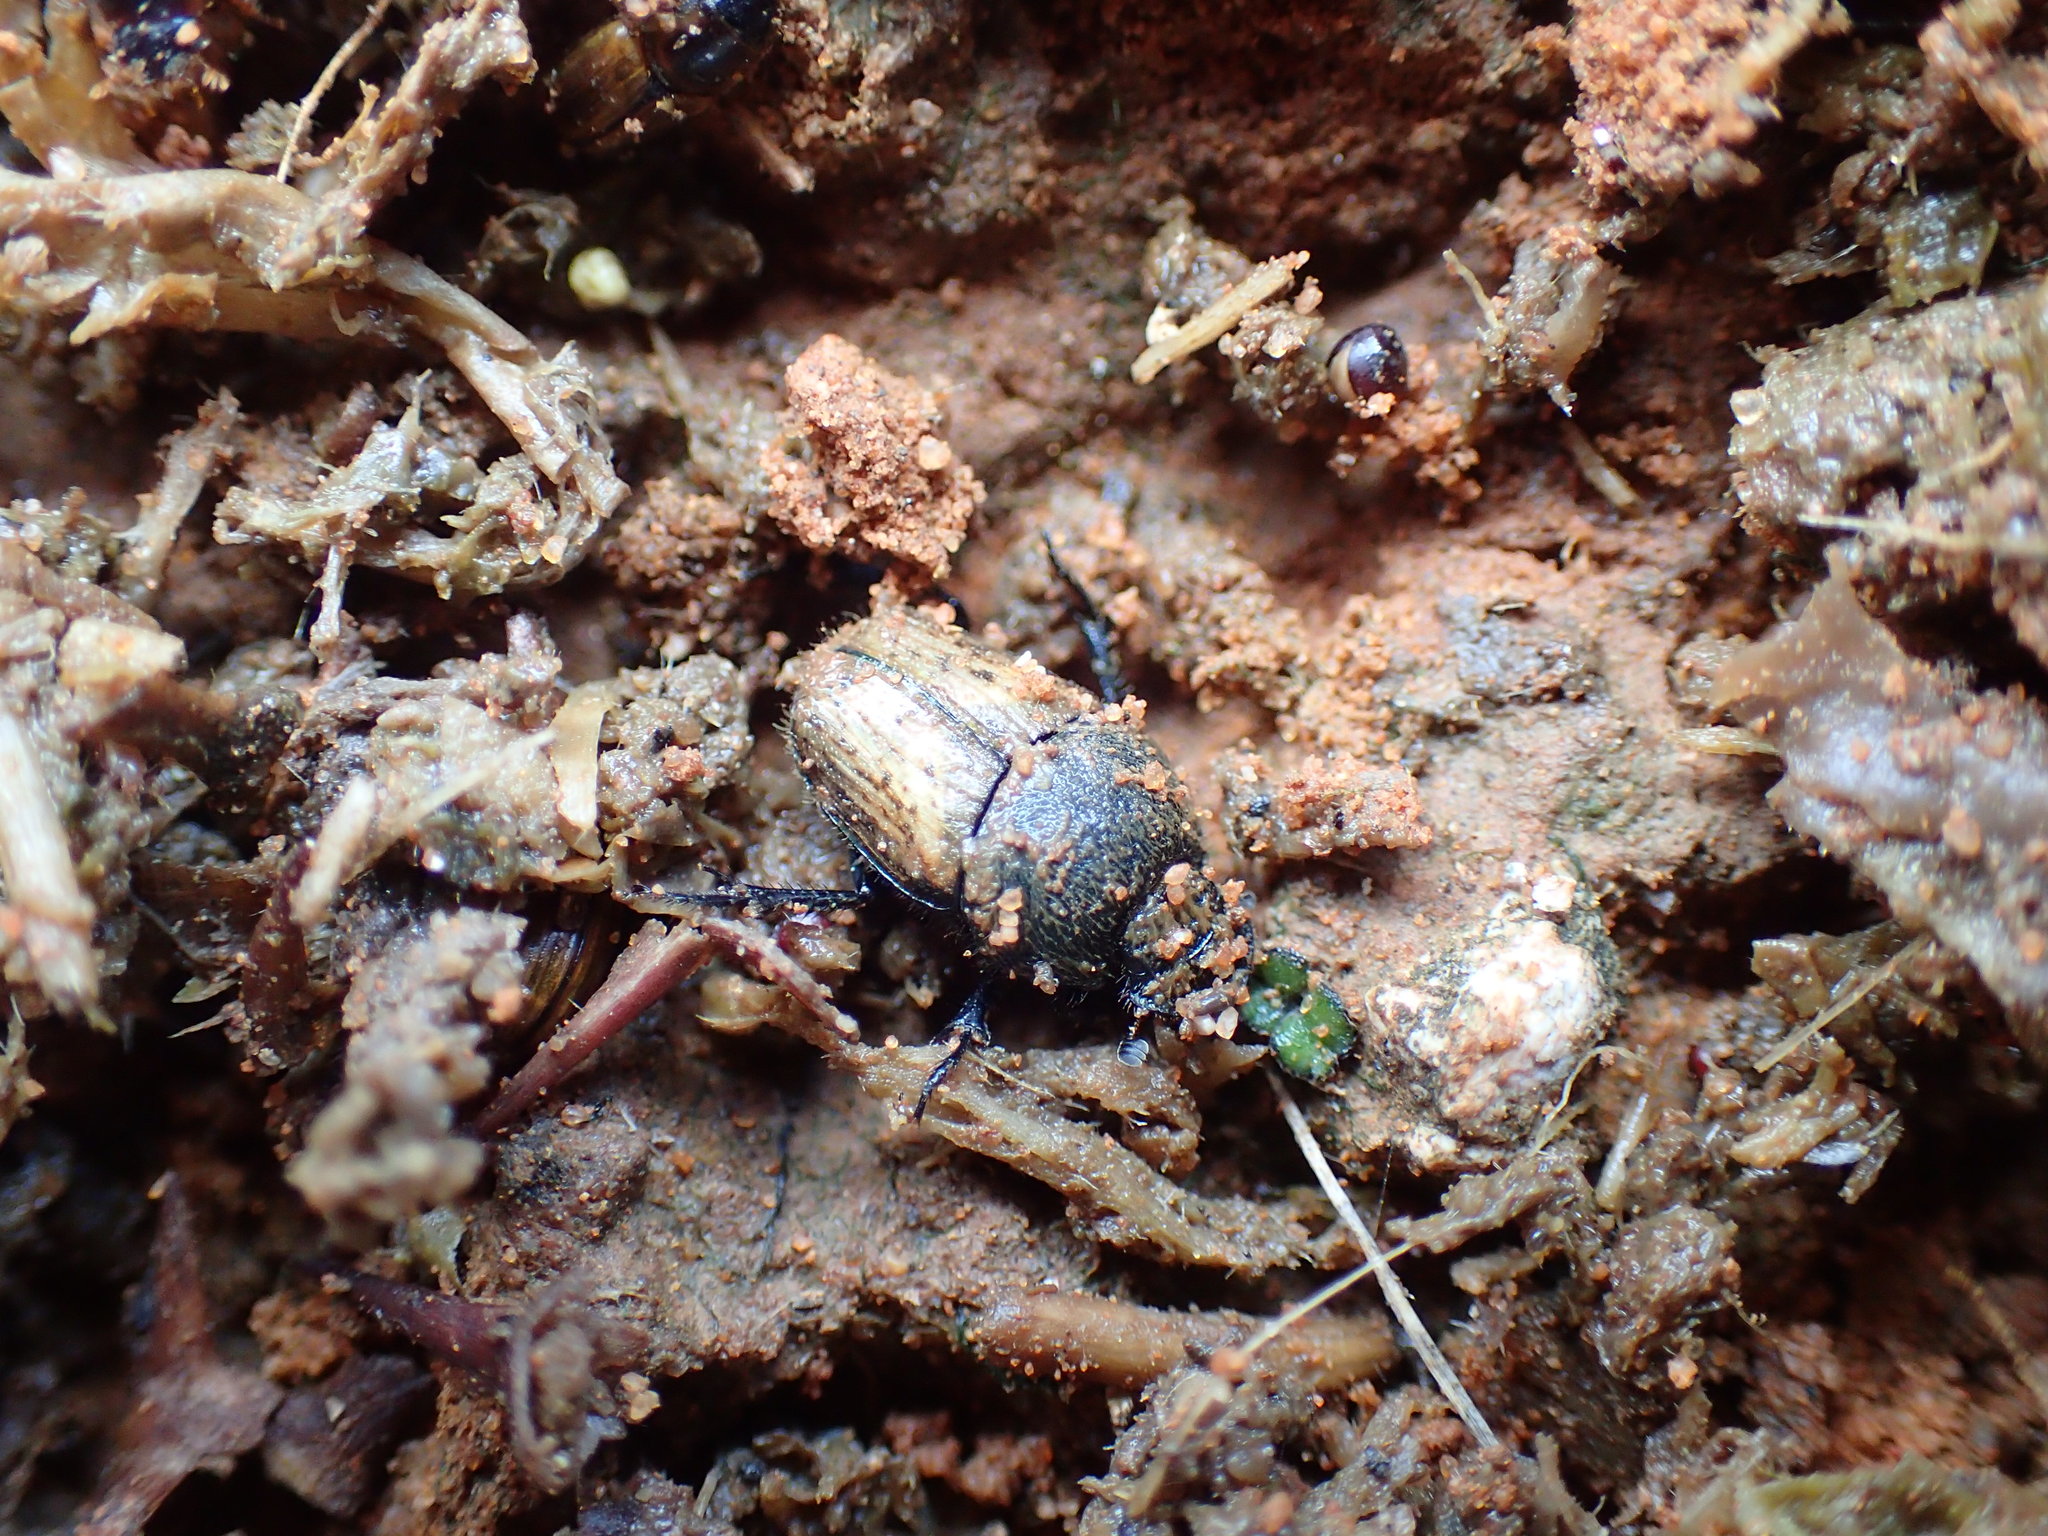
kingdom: Animalia
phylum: Arthropoda
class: Insecta
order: Coleoptera
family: Scarabaeidae
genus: Phalops
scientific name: Phalops rufosignatus
